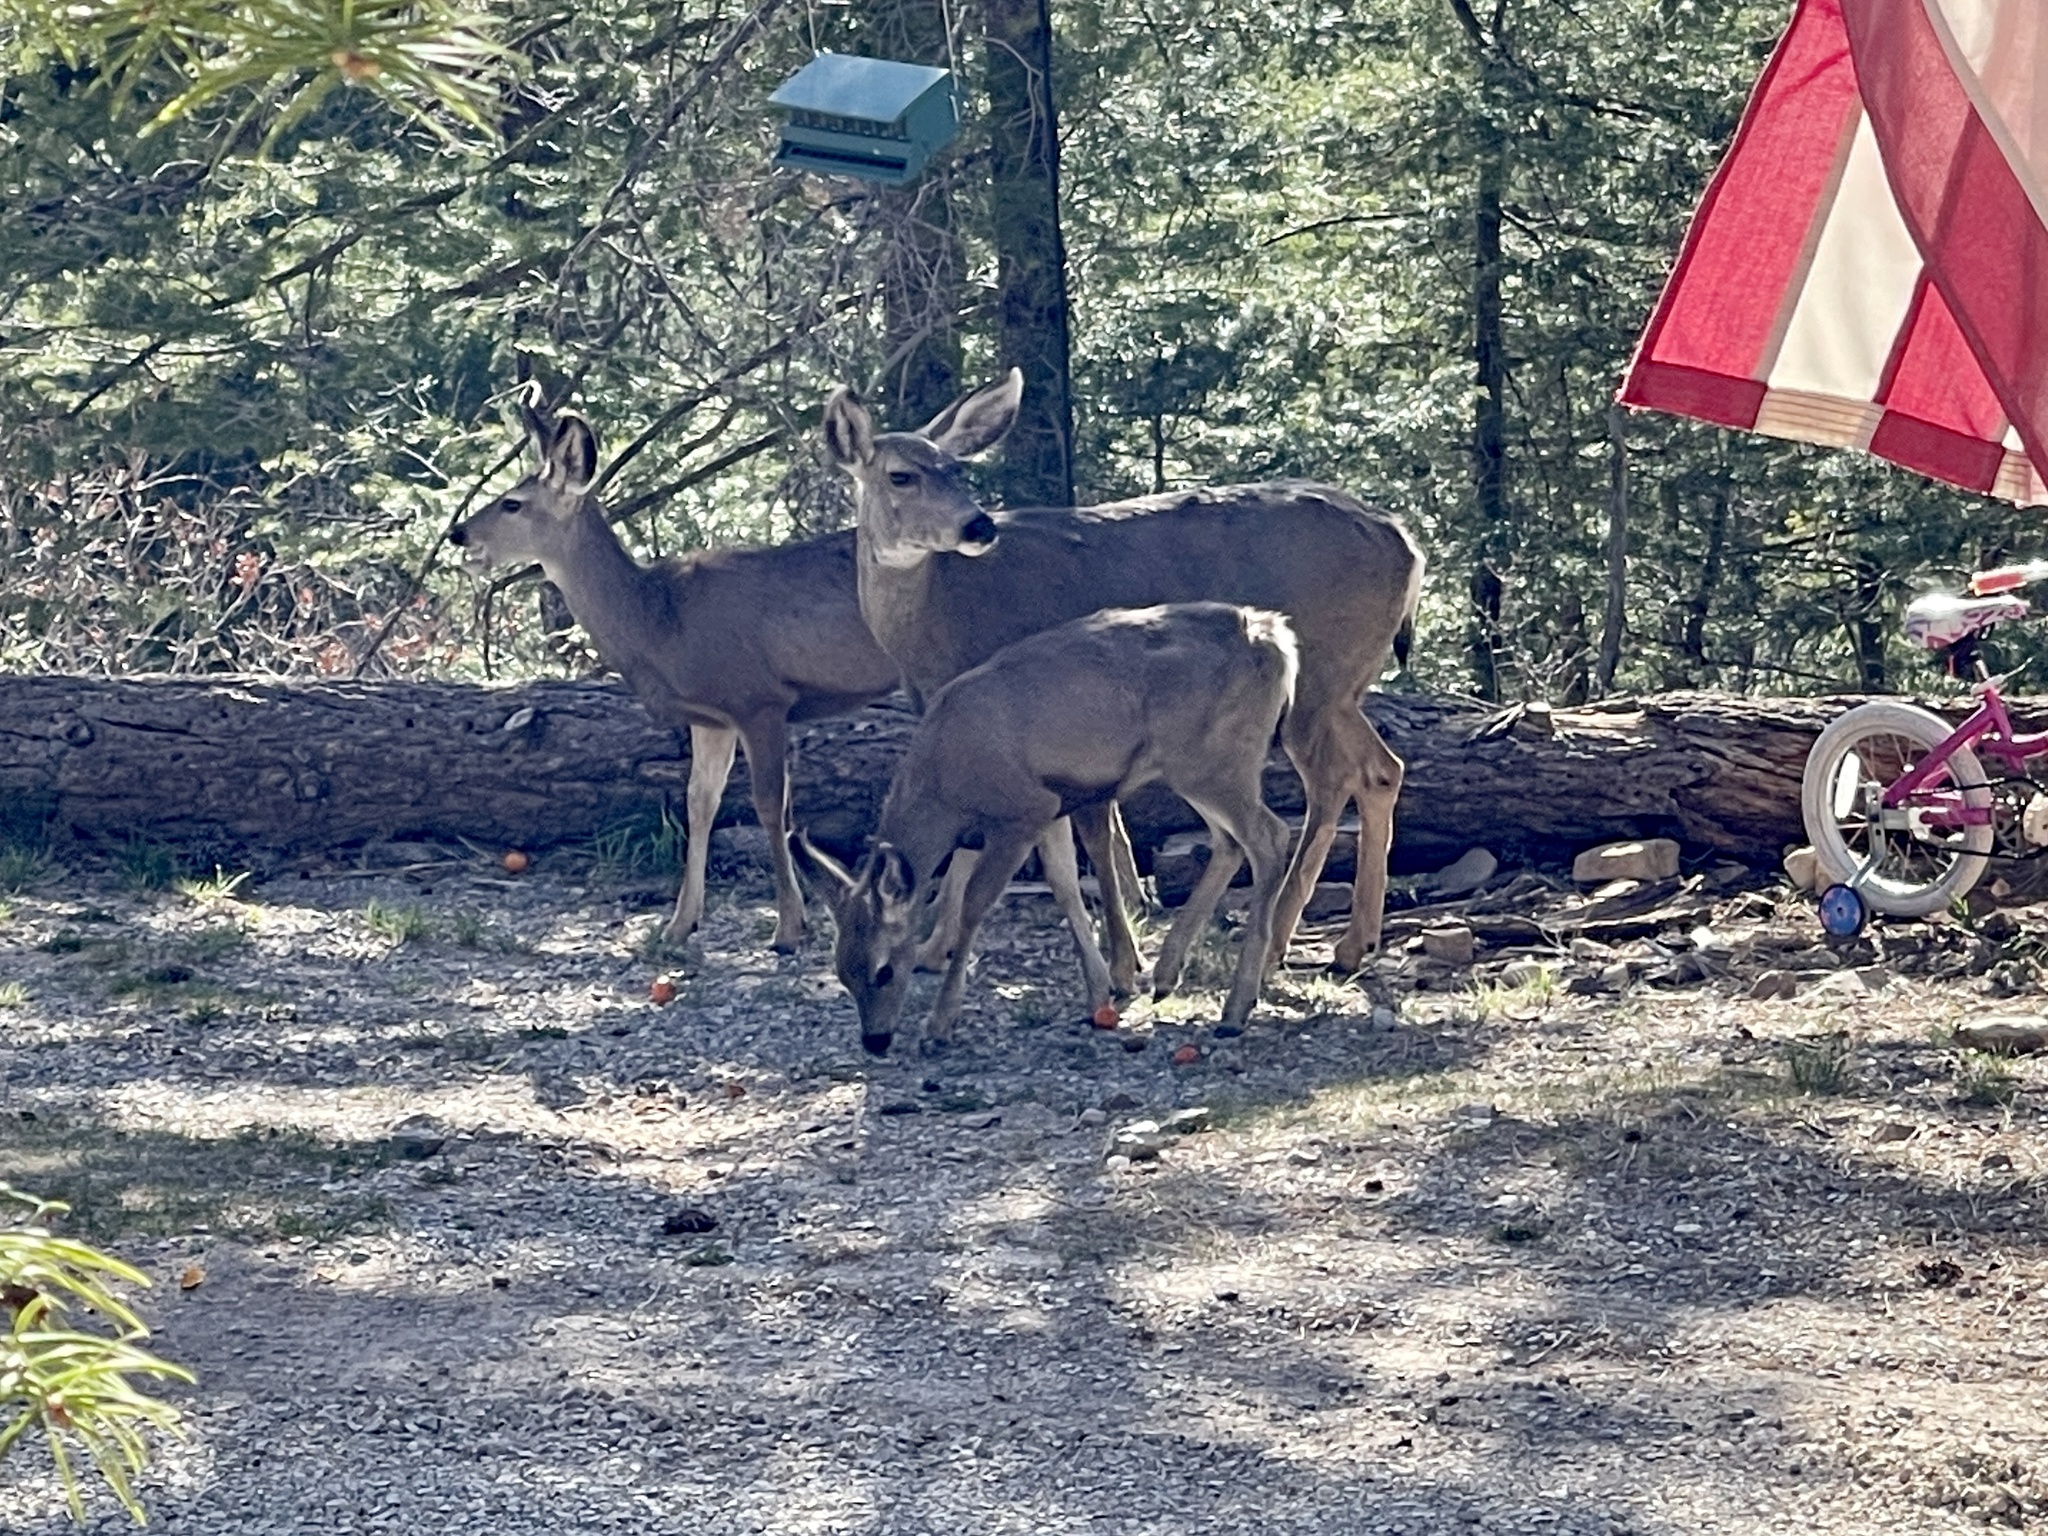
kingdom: Animalia
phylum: Chordata
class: Mammalia
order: Artiodactyla
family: Cervidae
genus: Odocoileus
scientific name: Odocoileus hemionus
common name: Mule deer
